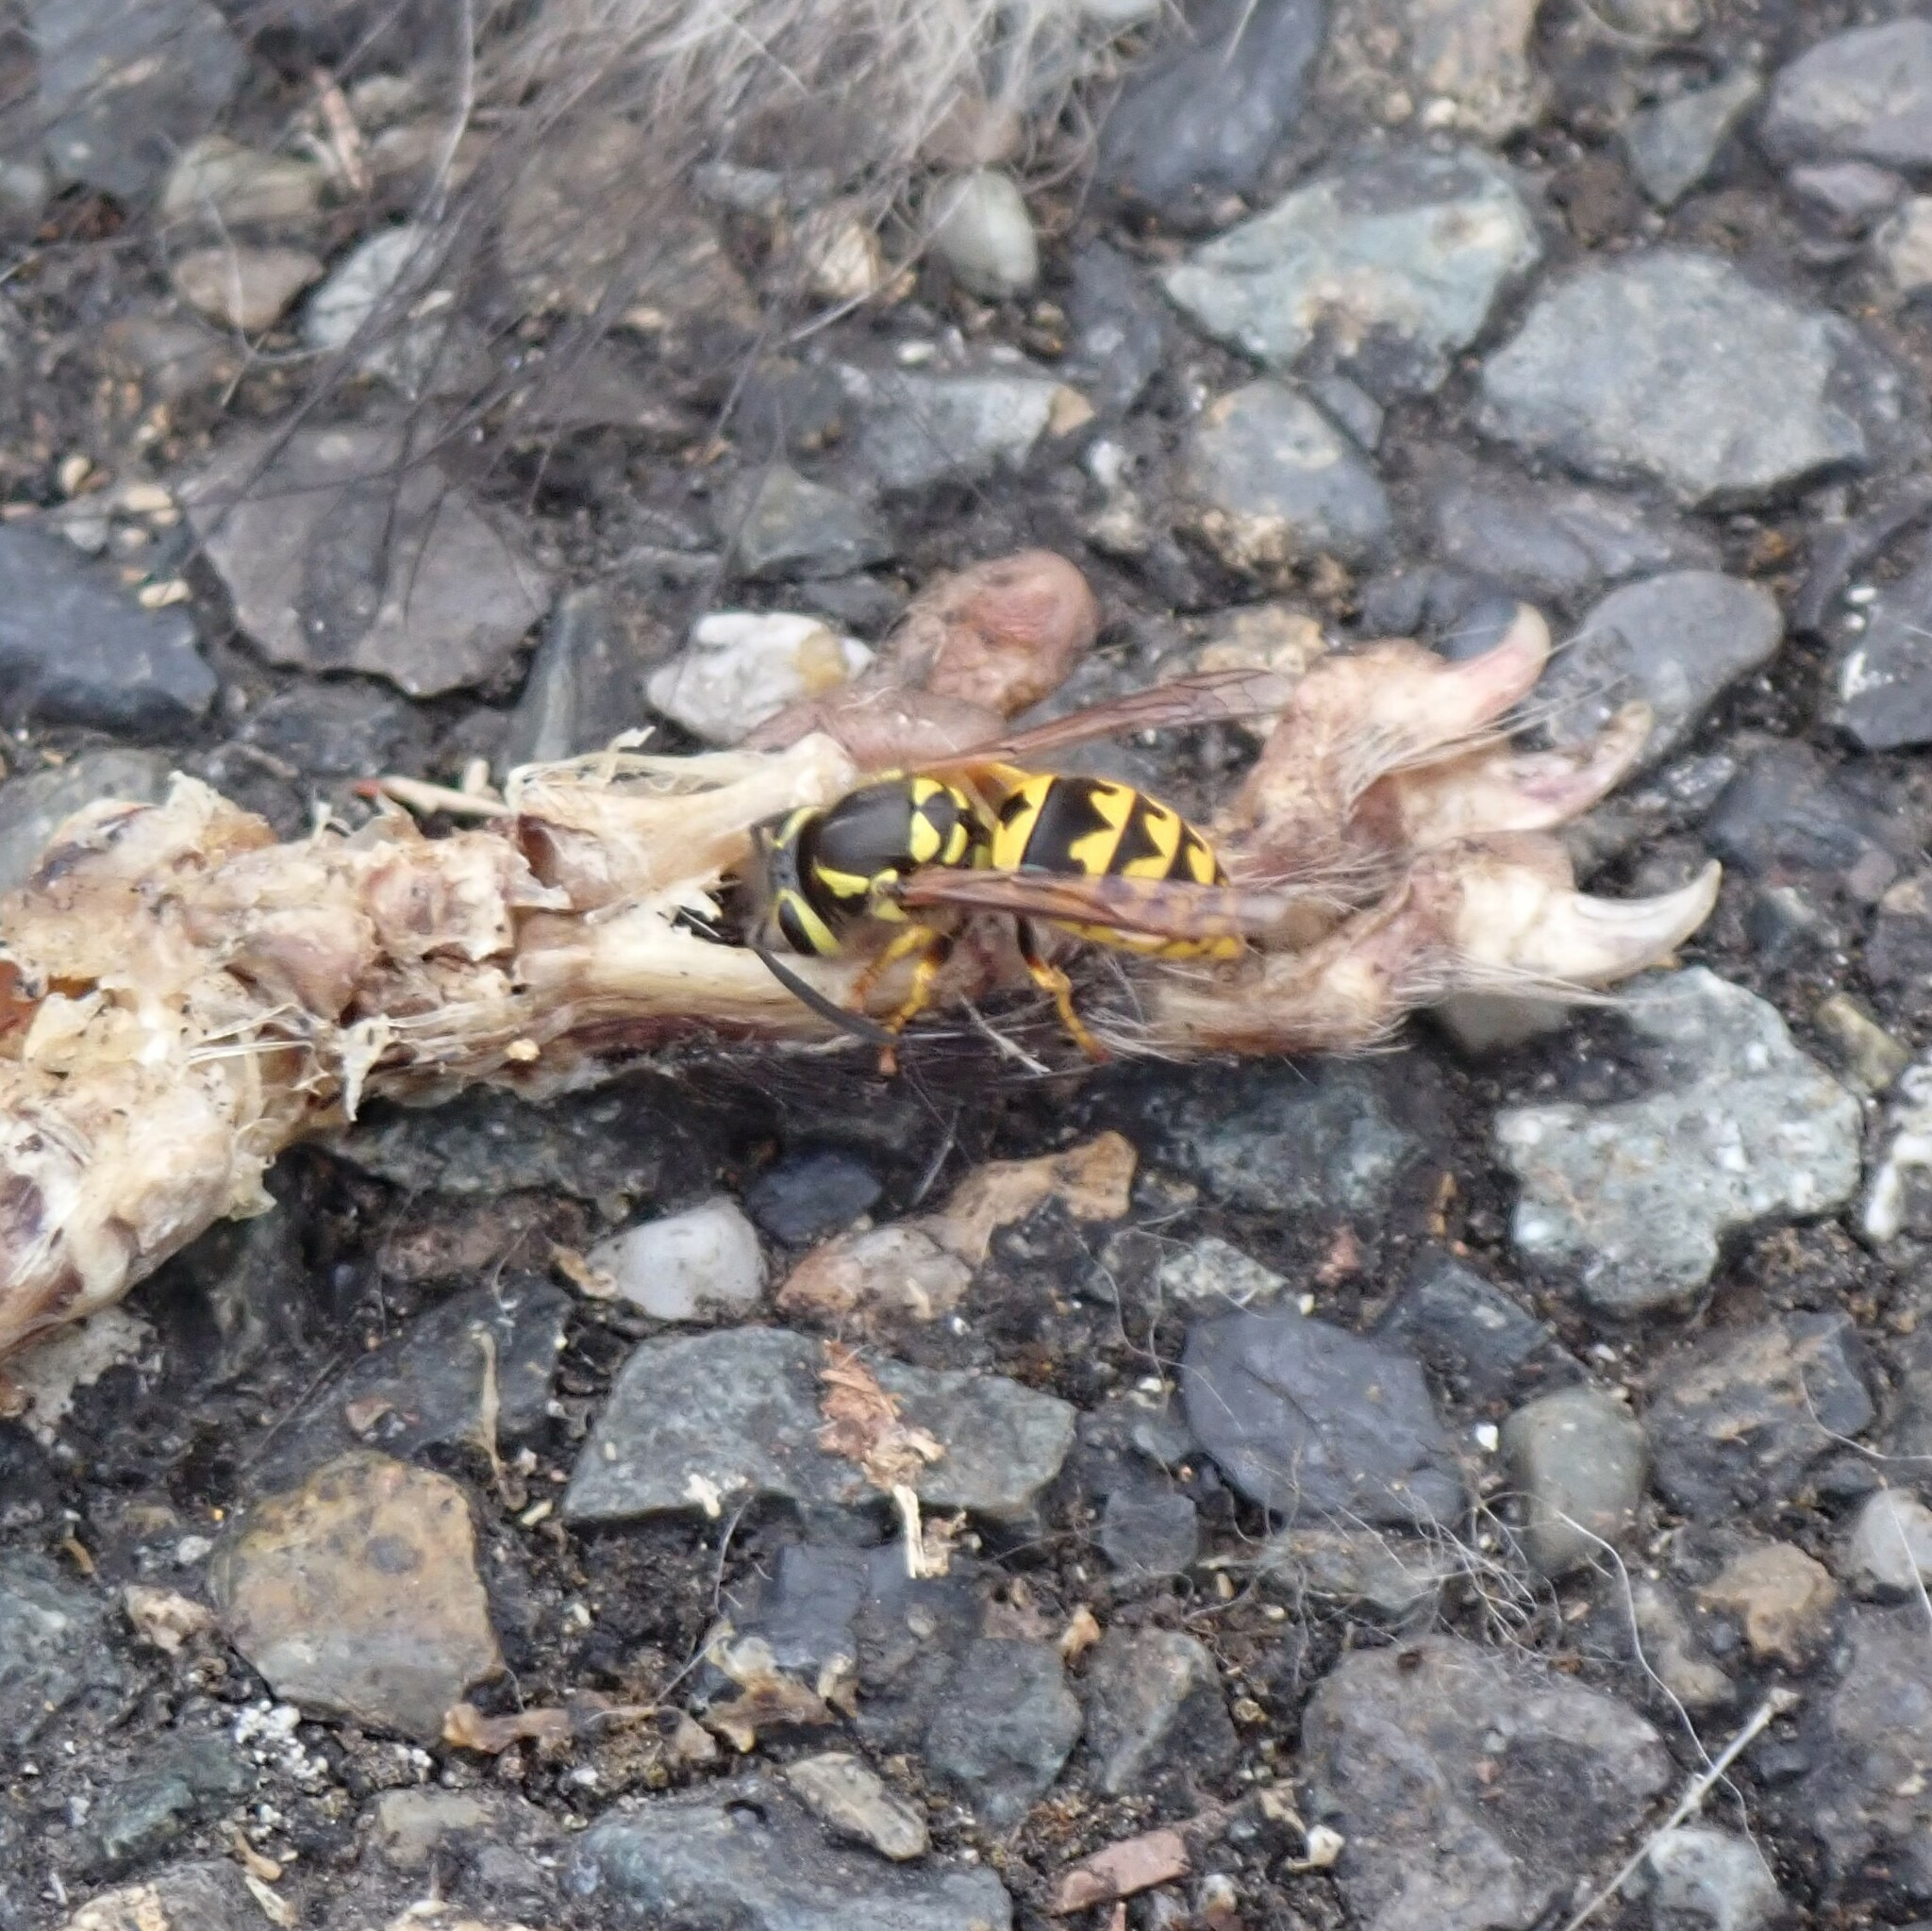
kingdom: Animalia
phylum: Arthropoda
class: Insecta
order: Hymenoptera
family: Vespidae
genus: Vespula
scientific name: Vespula pensylvanica
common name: Western yellowjacket
